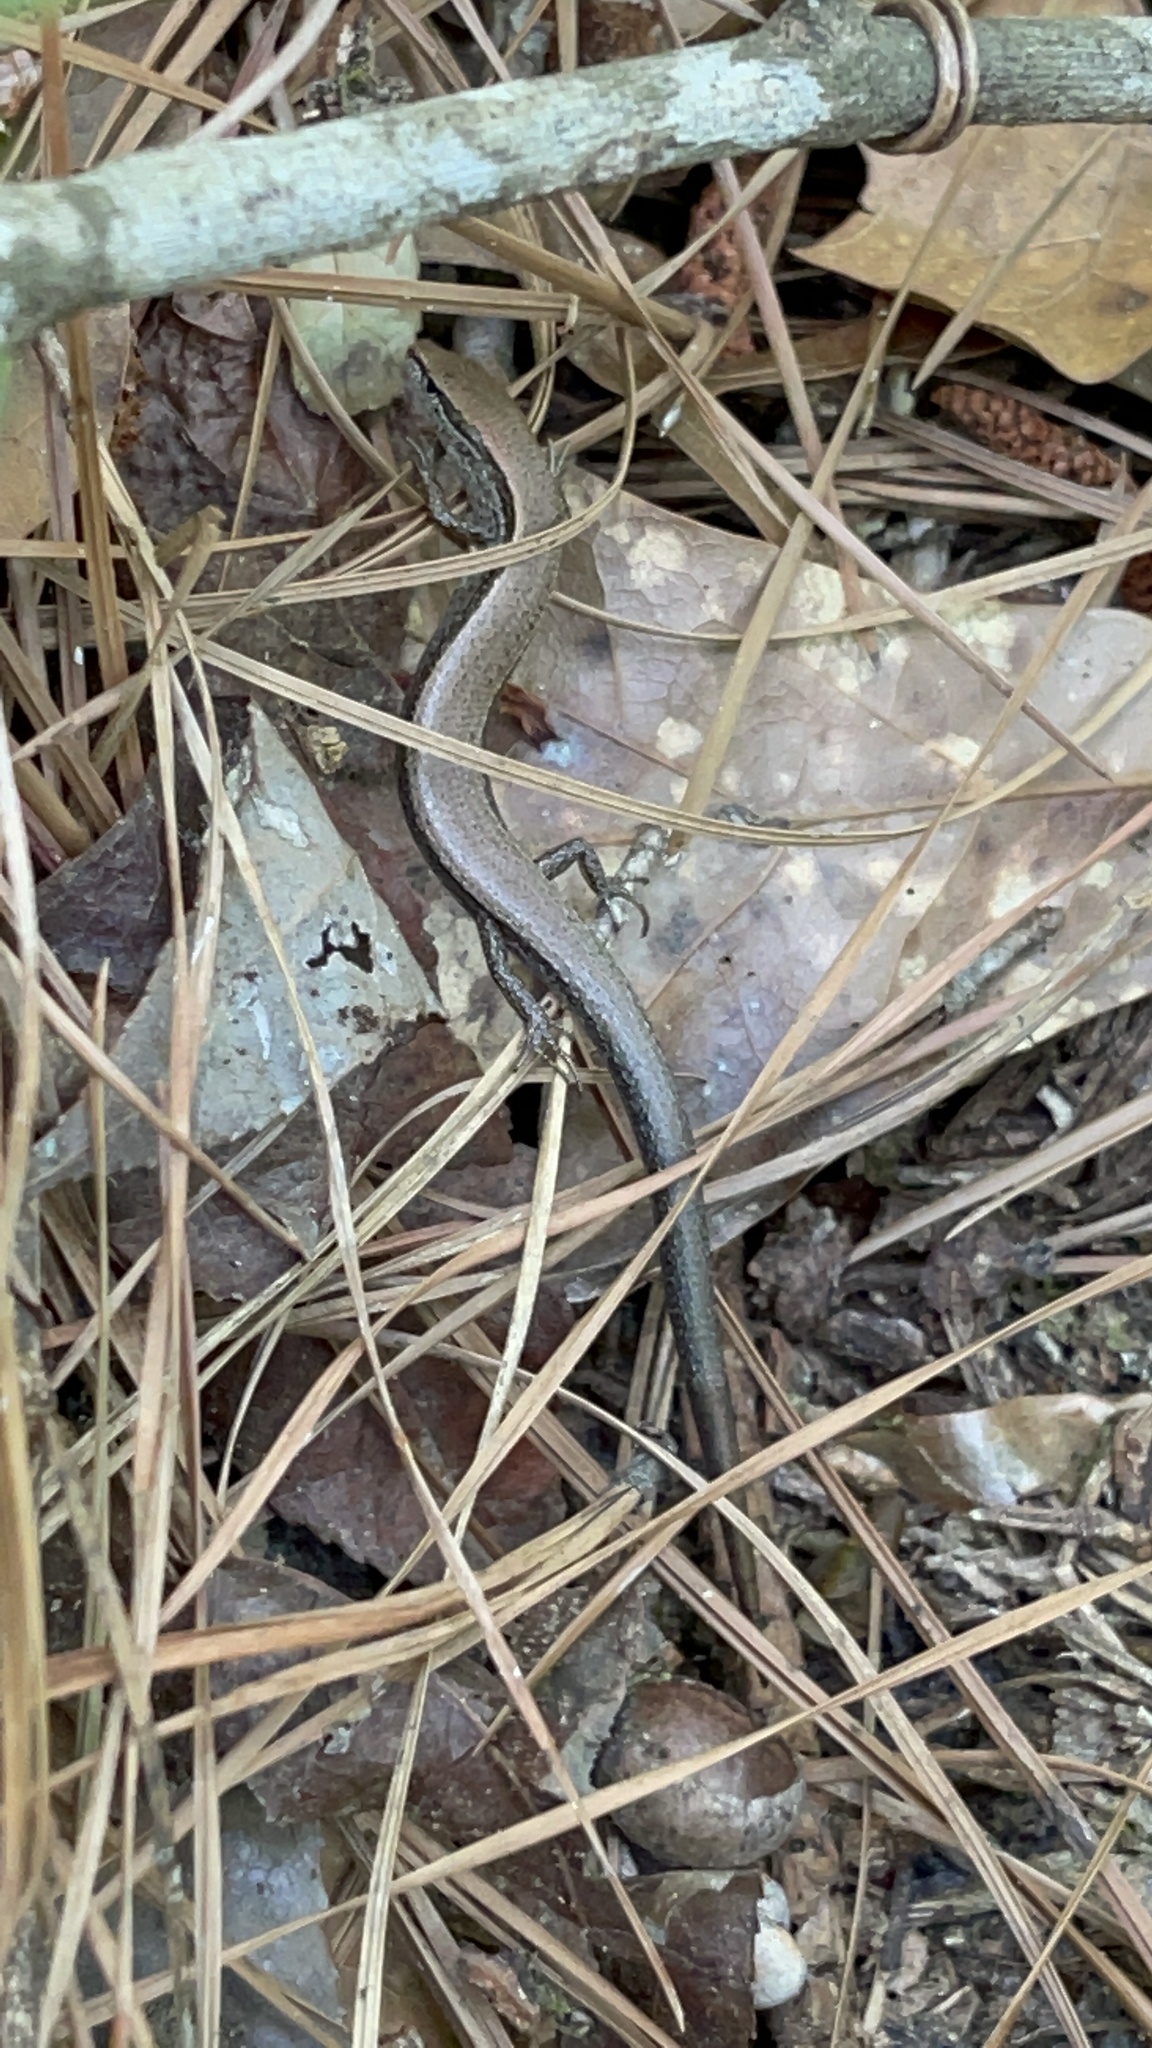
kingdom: Animalia
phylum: Chordata
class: Squamata
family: Scincidae
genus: Scincella
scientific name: Scincella lateralis
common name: Ground skink
